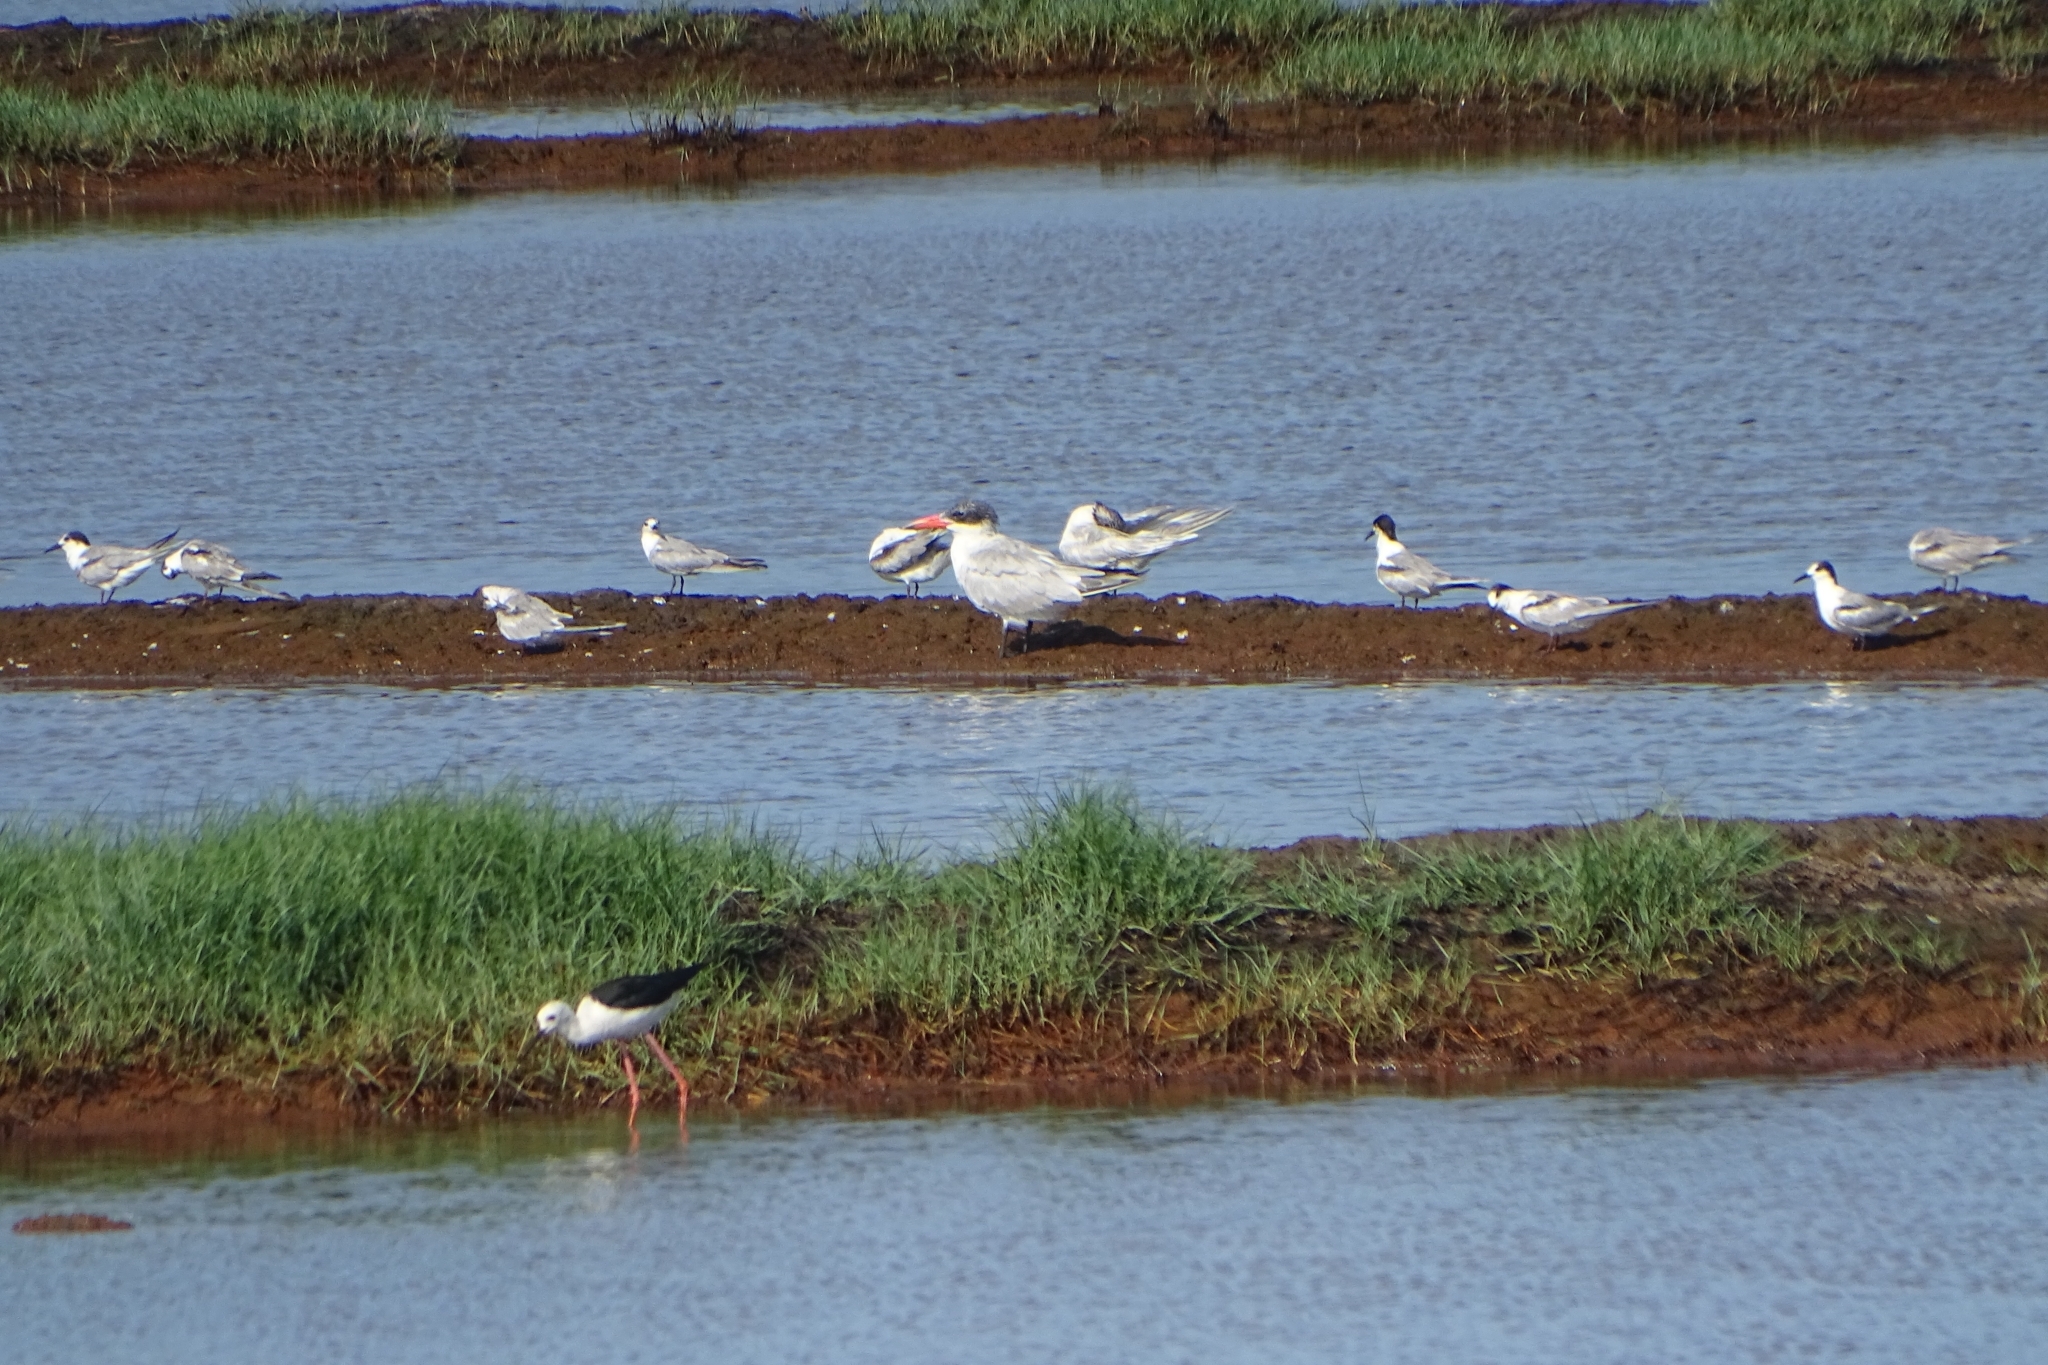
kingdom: Animalia
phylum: Chordata
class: Aves
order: Charadriiformes
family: Laridae
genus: Hydroprogne
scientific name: Hydroprogne caspia
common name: Caspian tern
